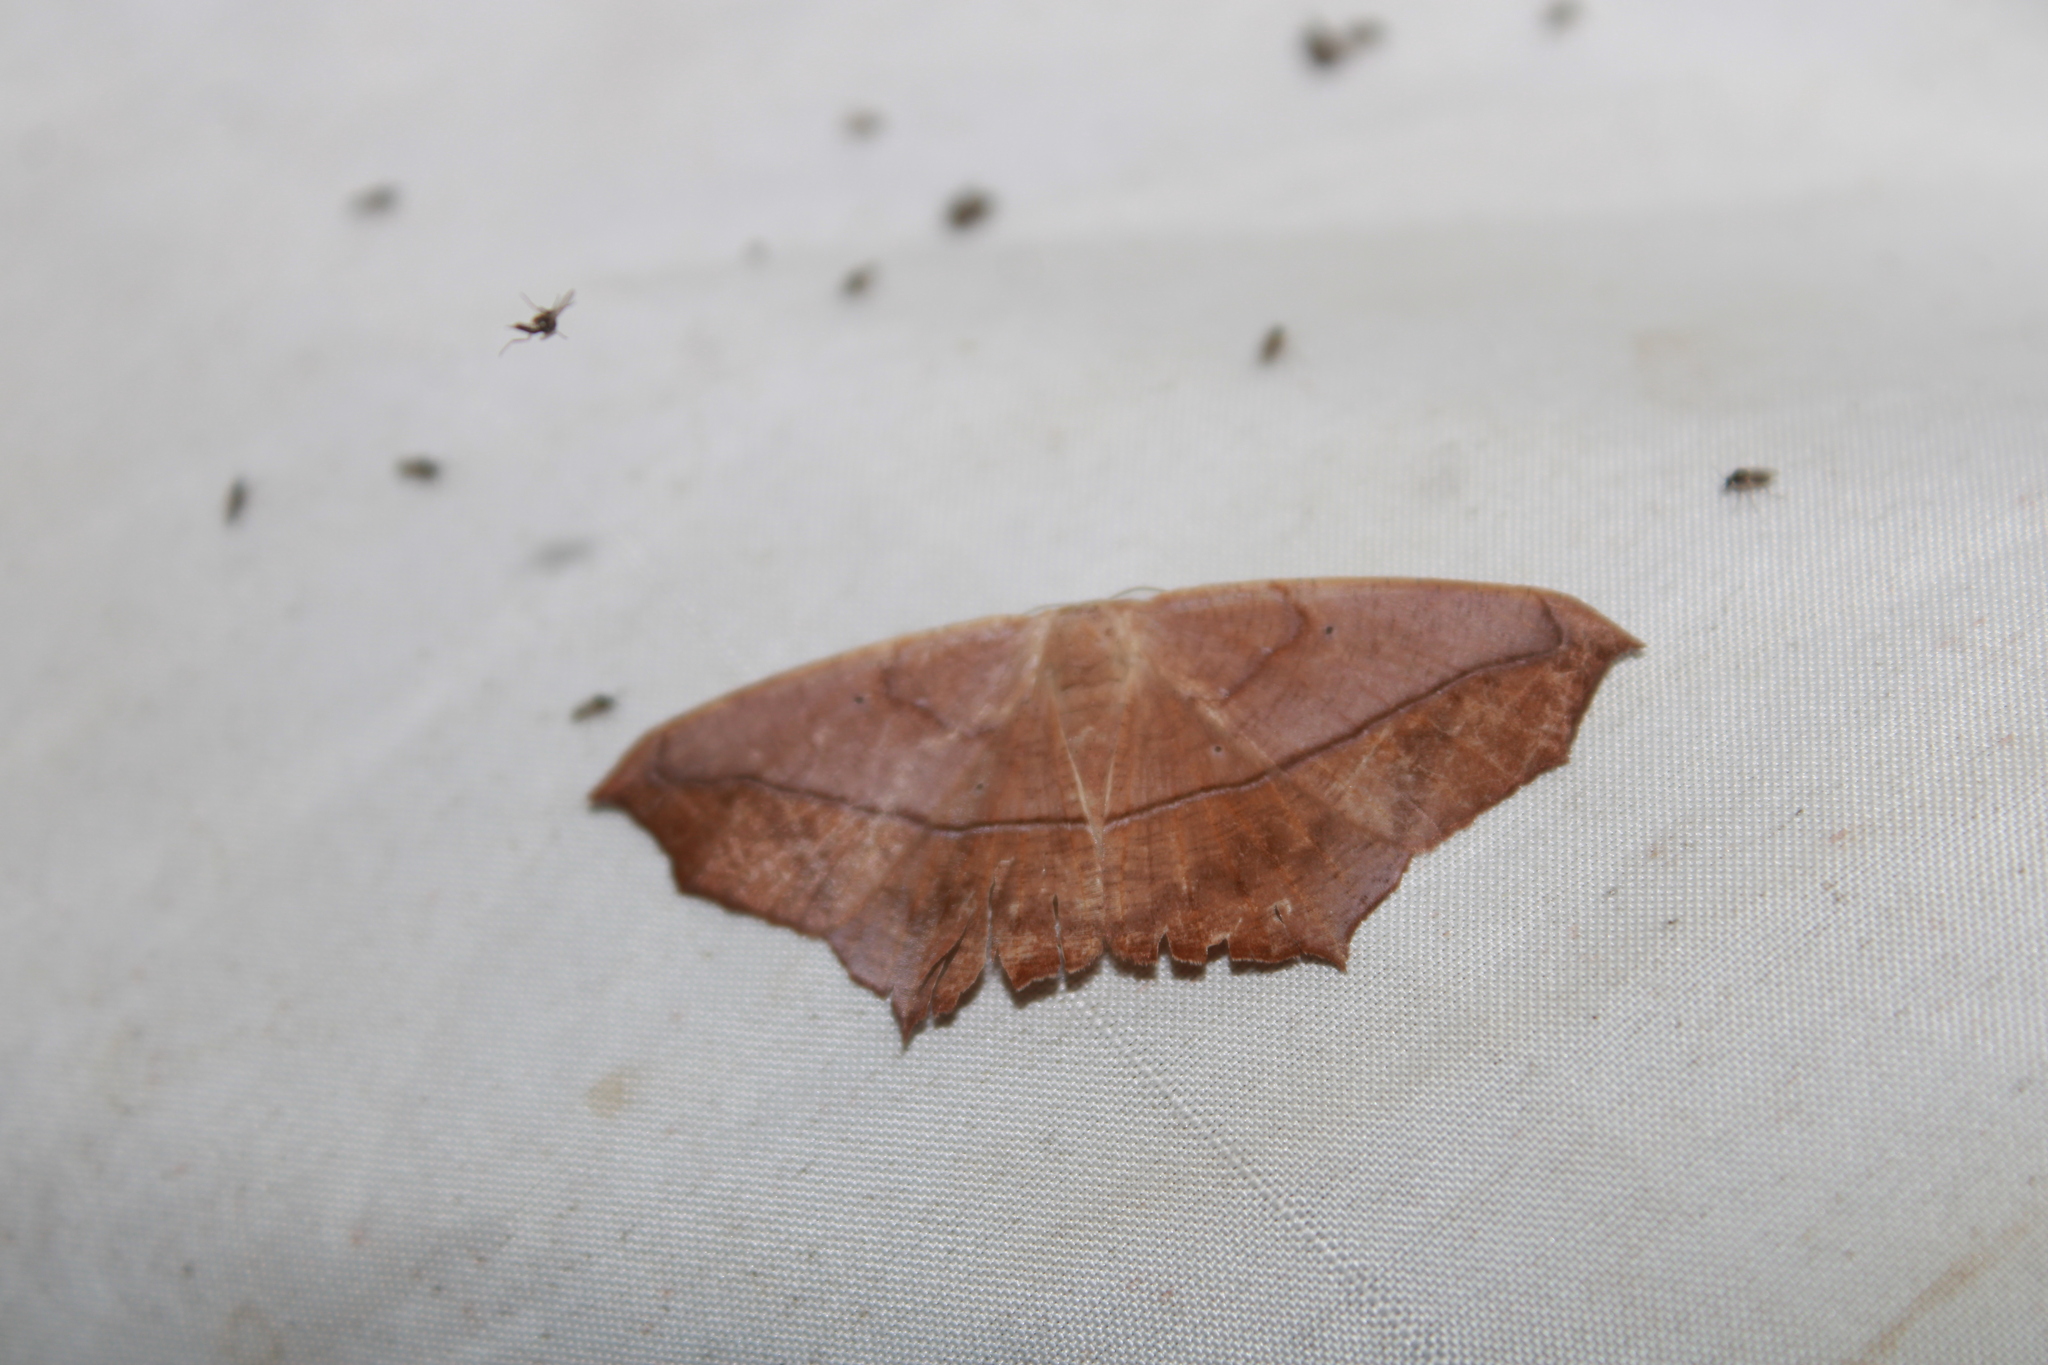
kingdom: Animalia
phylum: Arthropoda
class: Insecta
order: Lepidoptera
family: Geometridae
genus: Prochoerodes
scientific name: Prochoerodes lineola
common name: Large maple spanworm
